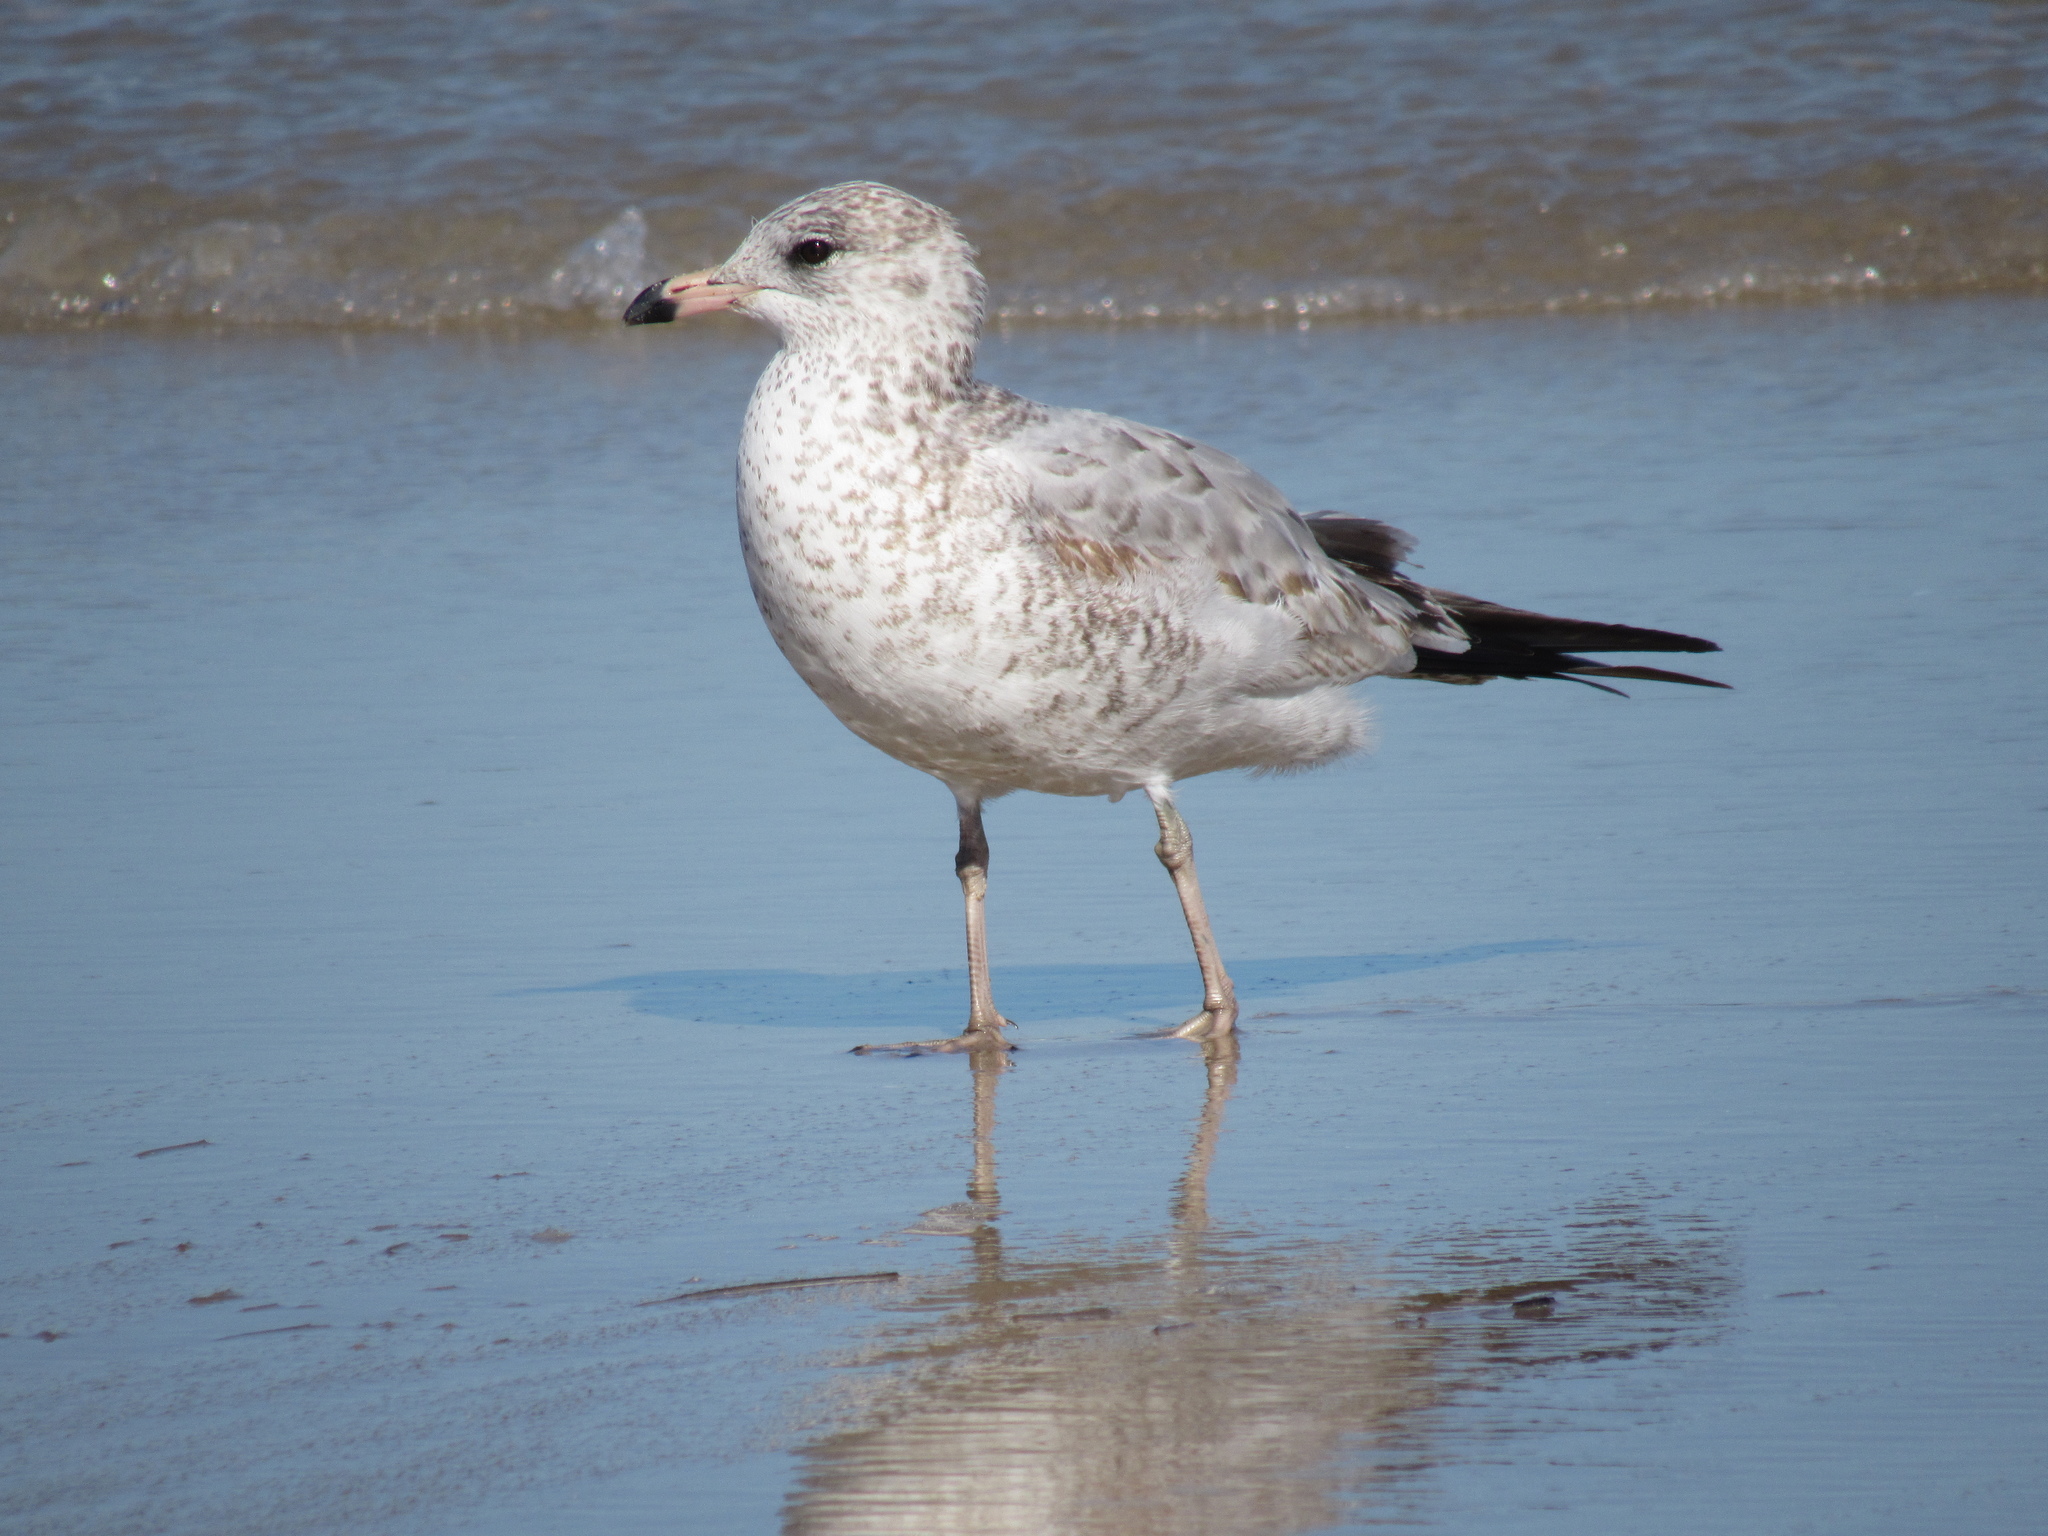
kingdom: Animalia
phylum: Chordata
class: Aves
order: Charadriiformes
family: Laridae
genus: Larus
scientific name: Larus delawarensis
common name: Ring-billed gull
